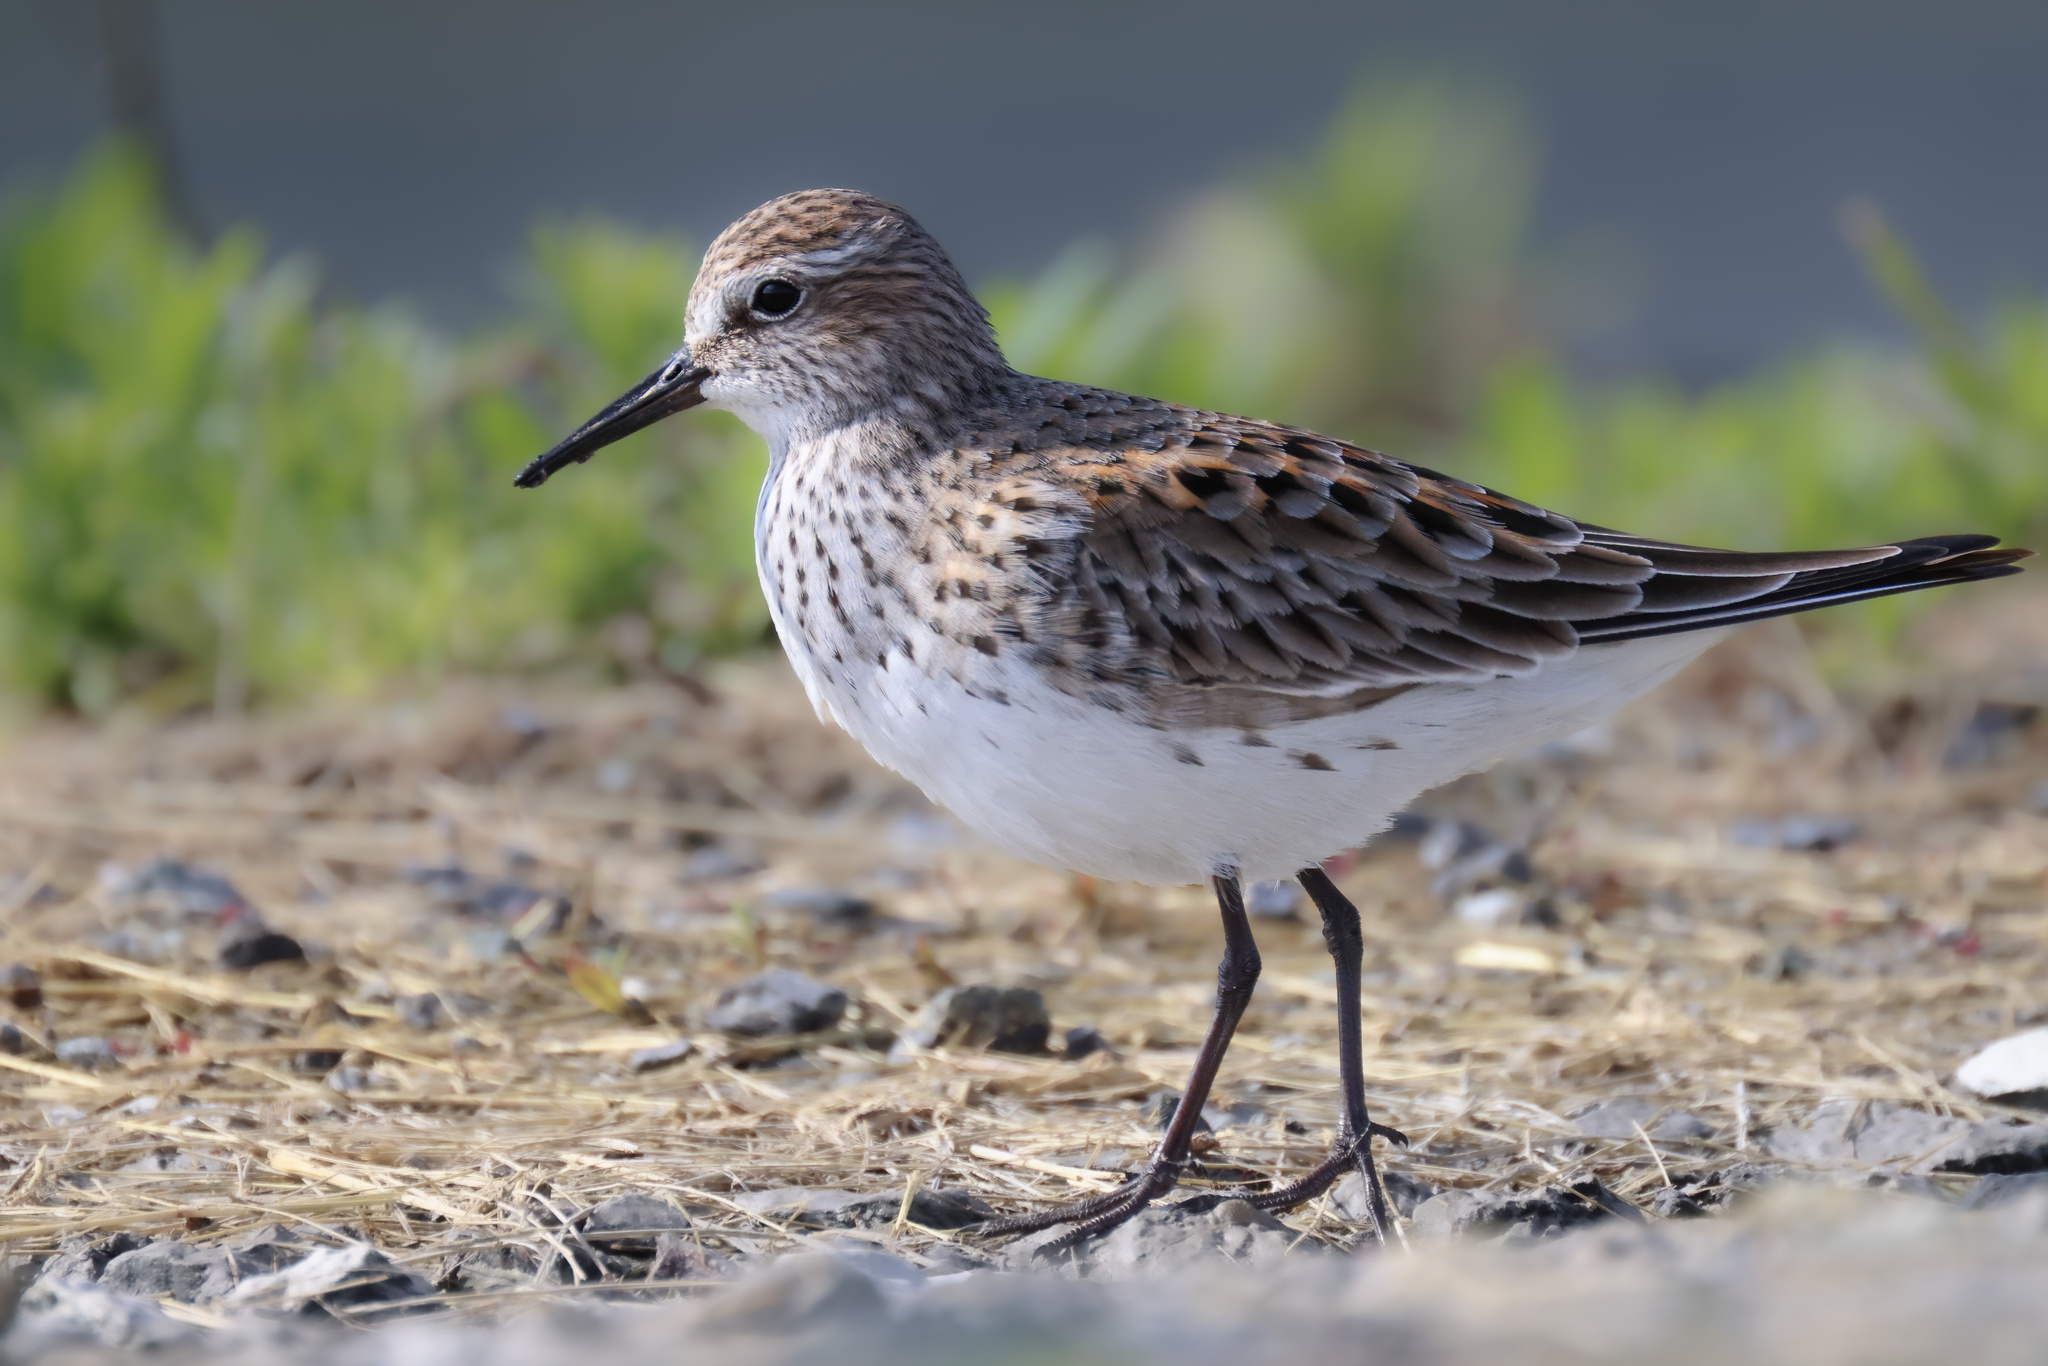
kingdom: Animalia
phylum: Chordata
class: Aves
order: Charadriiformes
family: Scolopacidae
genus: Calidris
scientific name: Calidris fuscicollis
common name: White-rumped sandpiper
